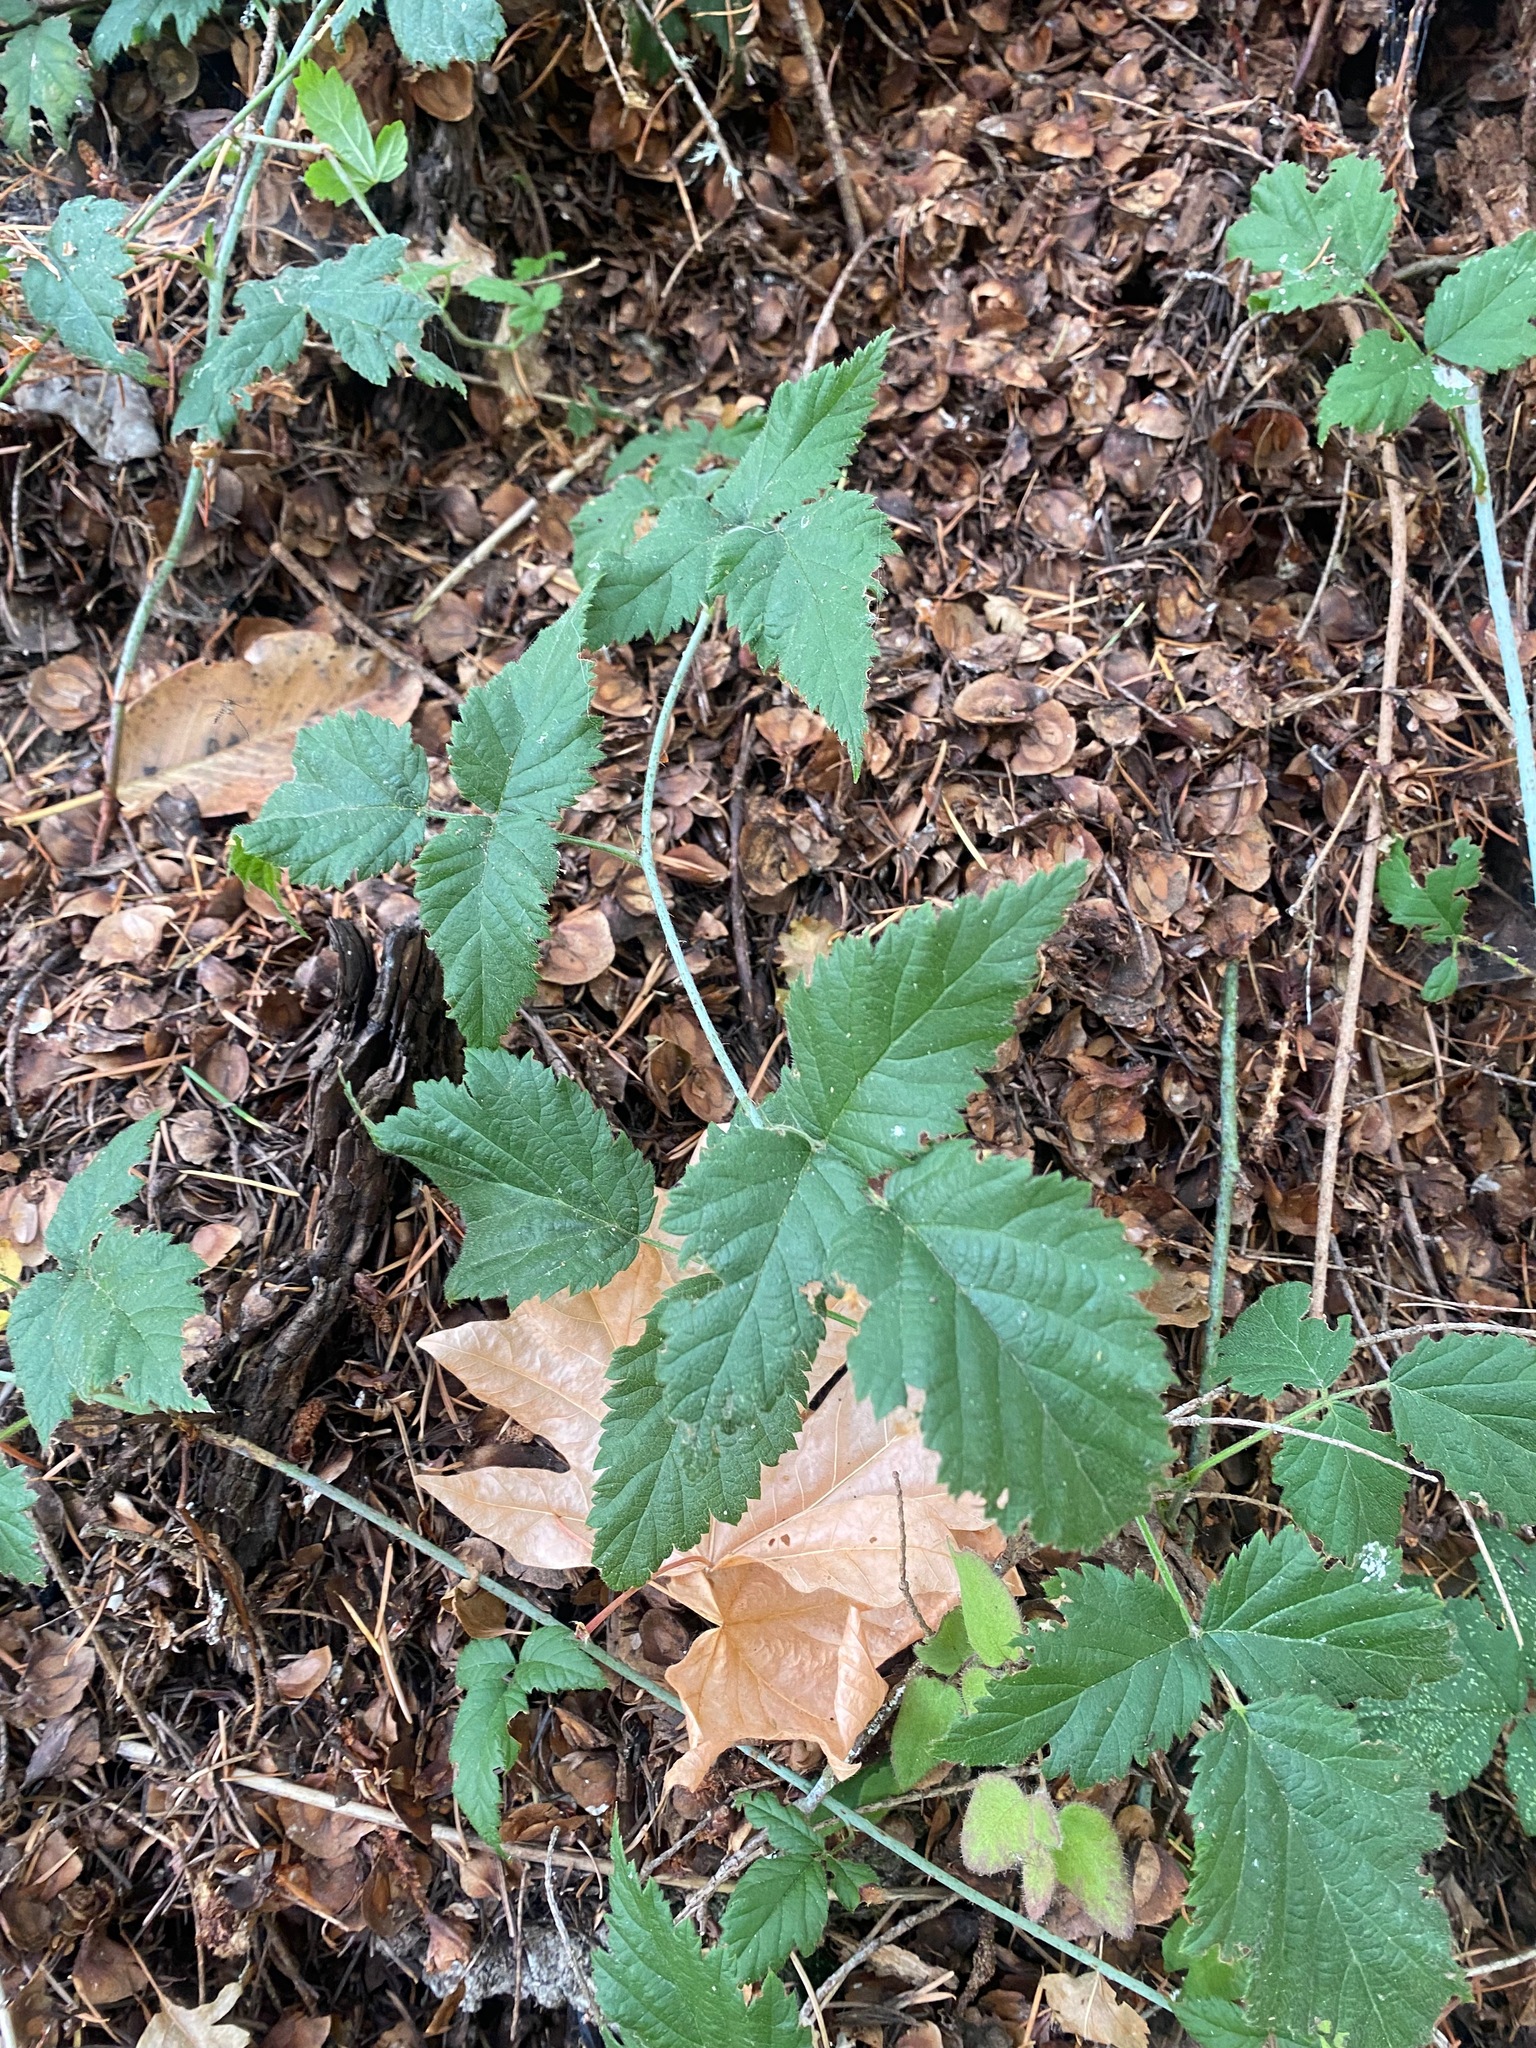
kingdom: Plantae
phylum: Tracheophyta
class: Magnoliopsida
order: Rosales
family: Rosaceae
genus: Rubus
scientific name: Rubus ursinus
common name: Pacific blackberry
